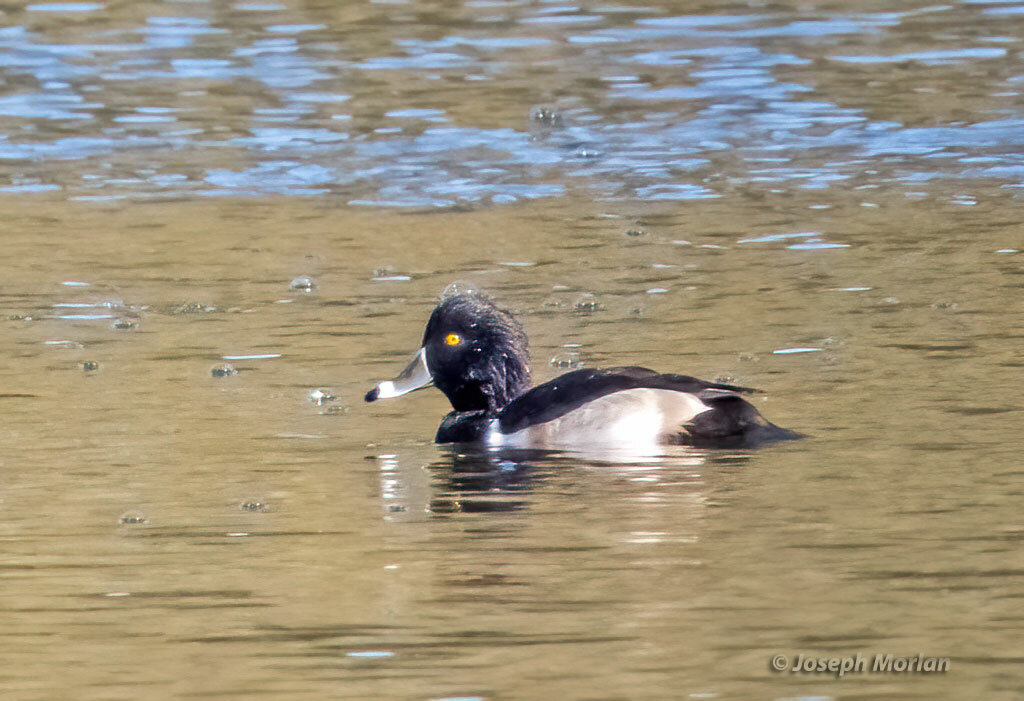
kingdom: Animalia
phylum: Chordata
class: Aves
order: Anseriformes
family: Anatidae
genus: Aythya
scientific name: Aythya collaris
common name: Ring-necked duck
